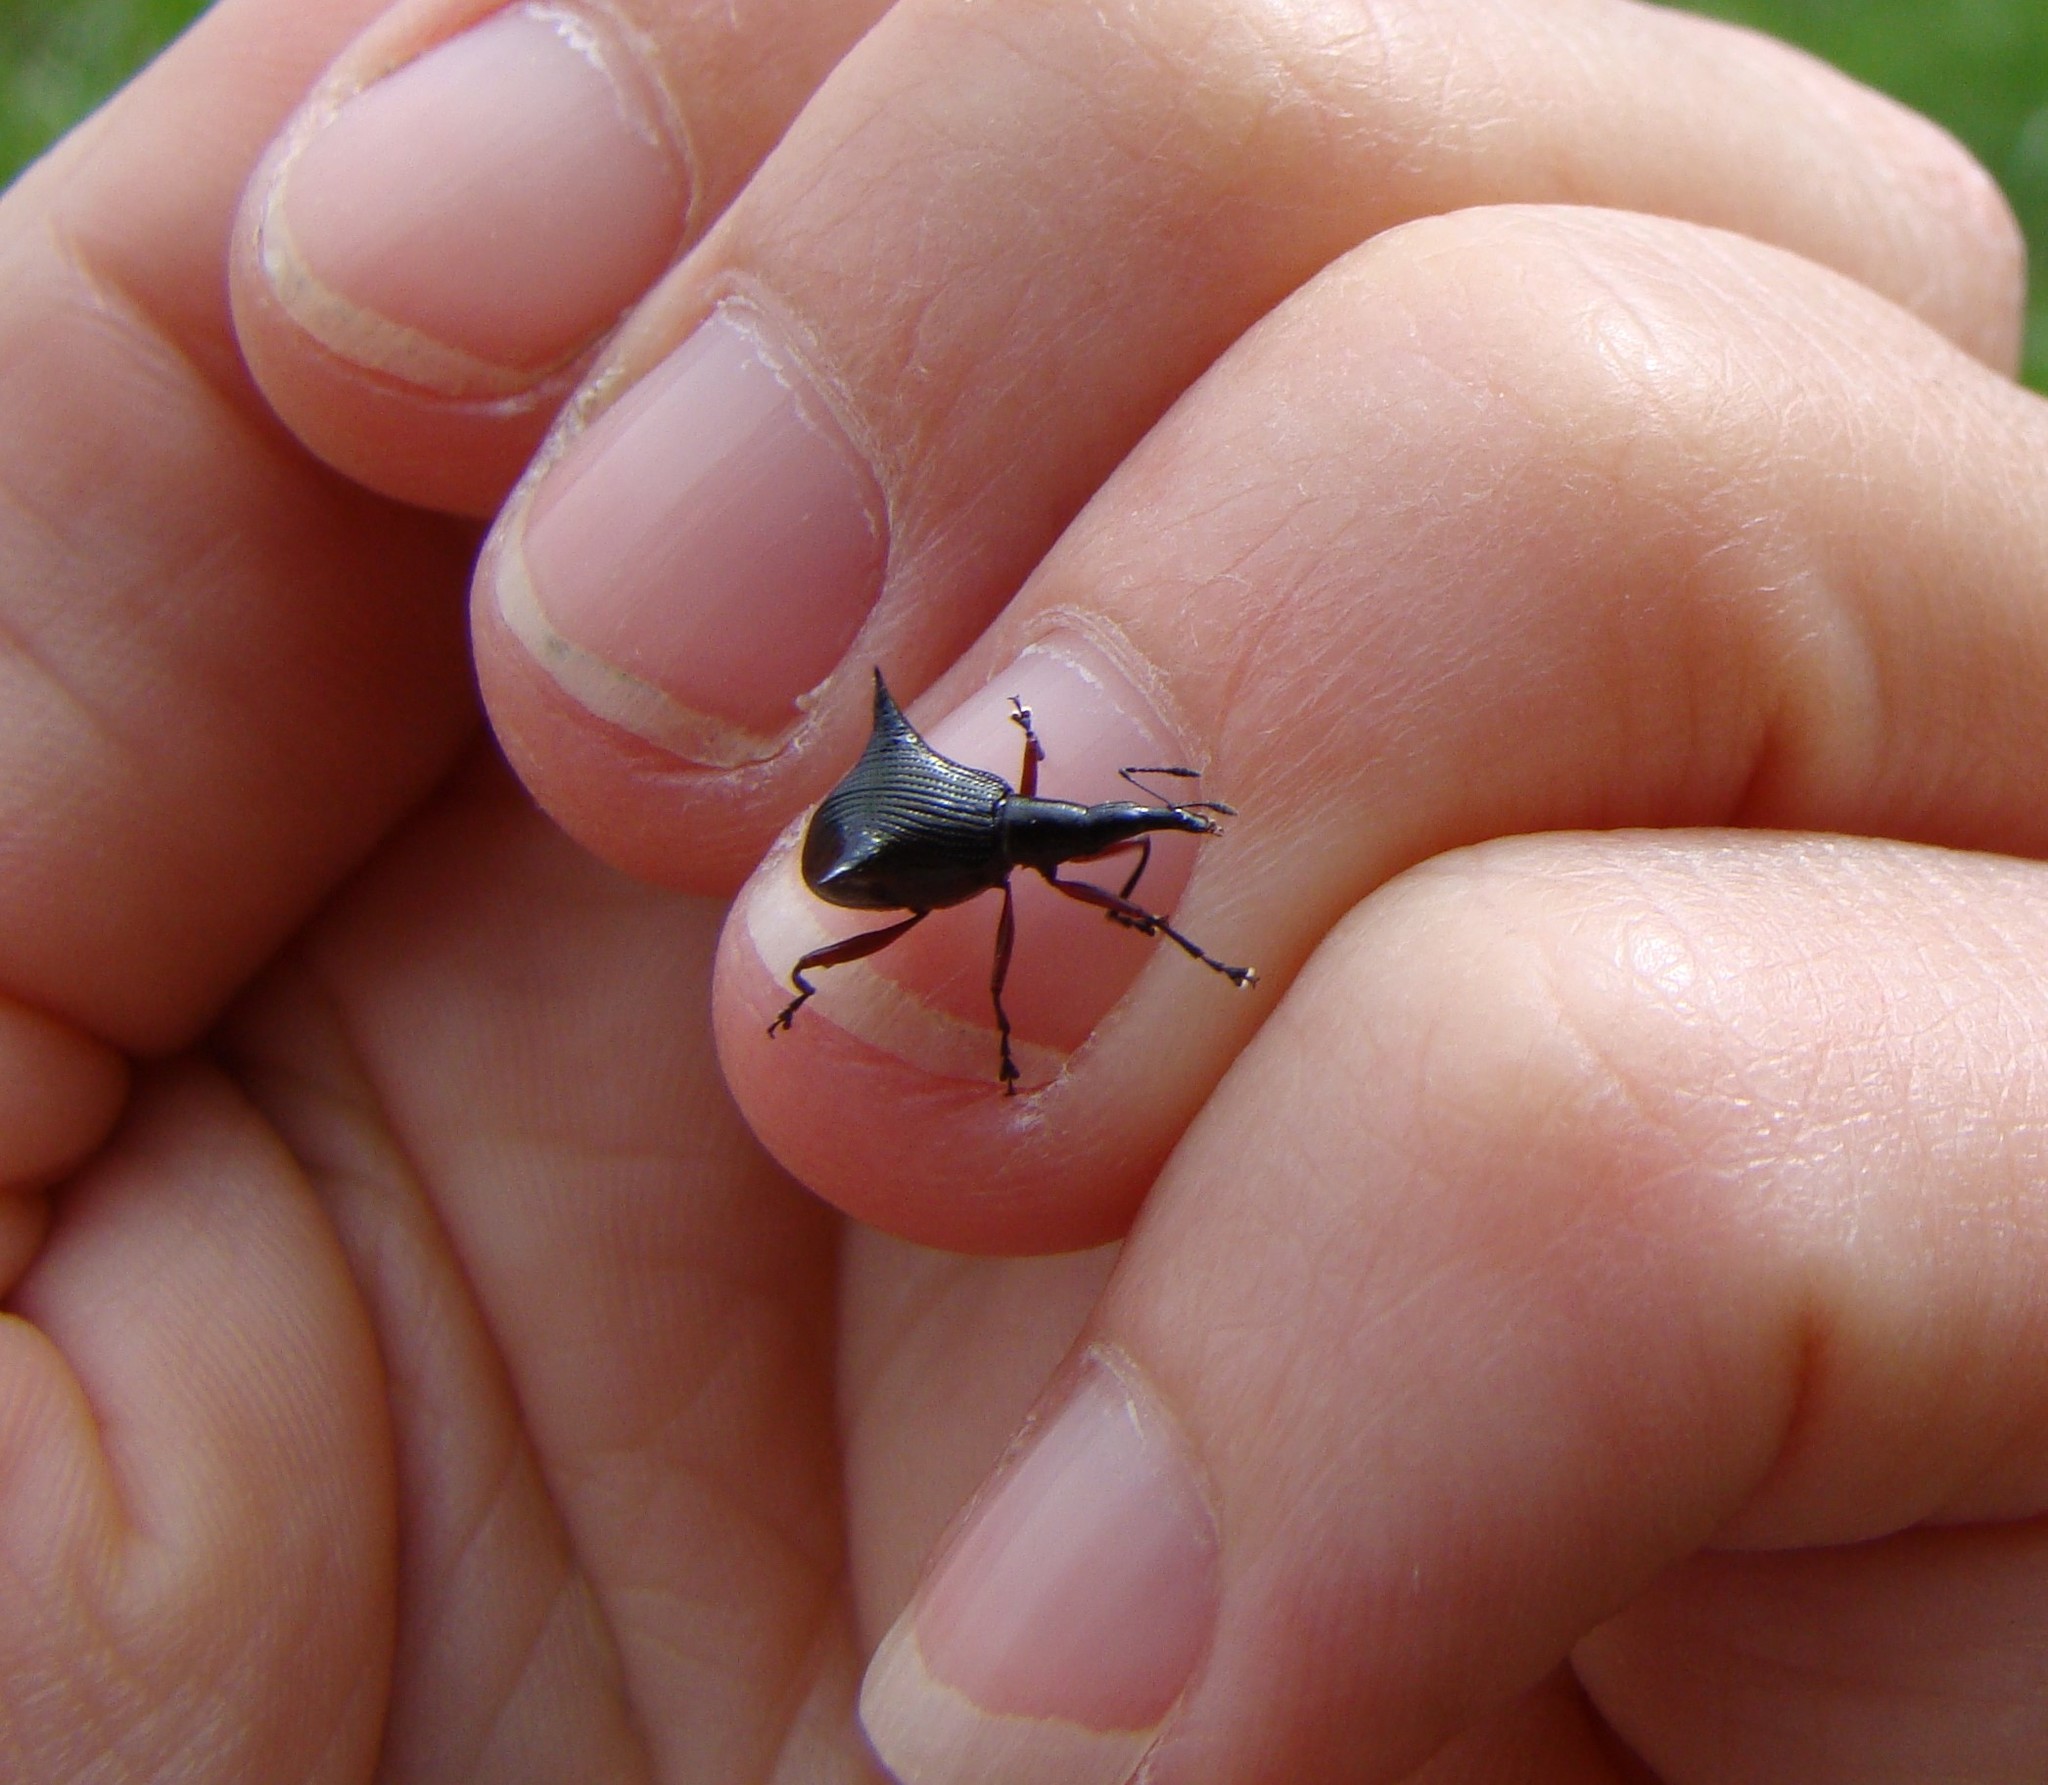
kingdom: Animalia
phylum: Arthropoda
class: Insecta
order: Coleoptera
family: Curculionidae
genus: Nyxetes
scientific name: Nyxetes bidens
